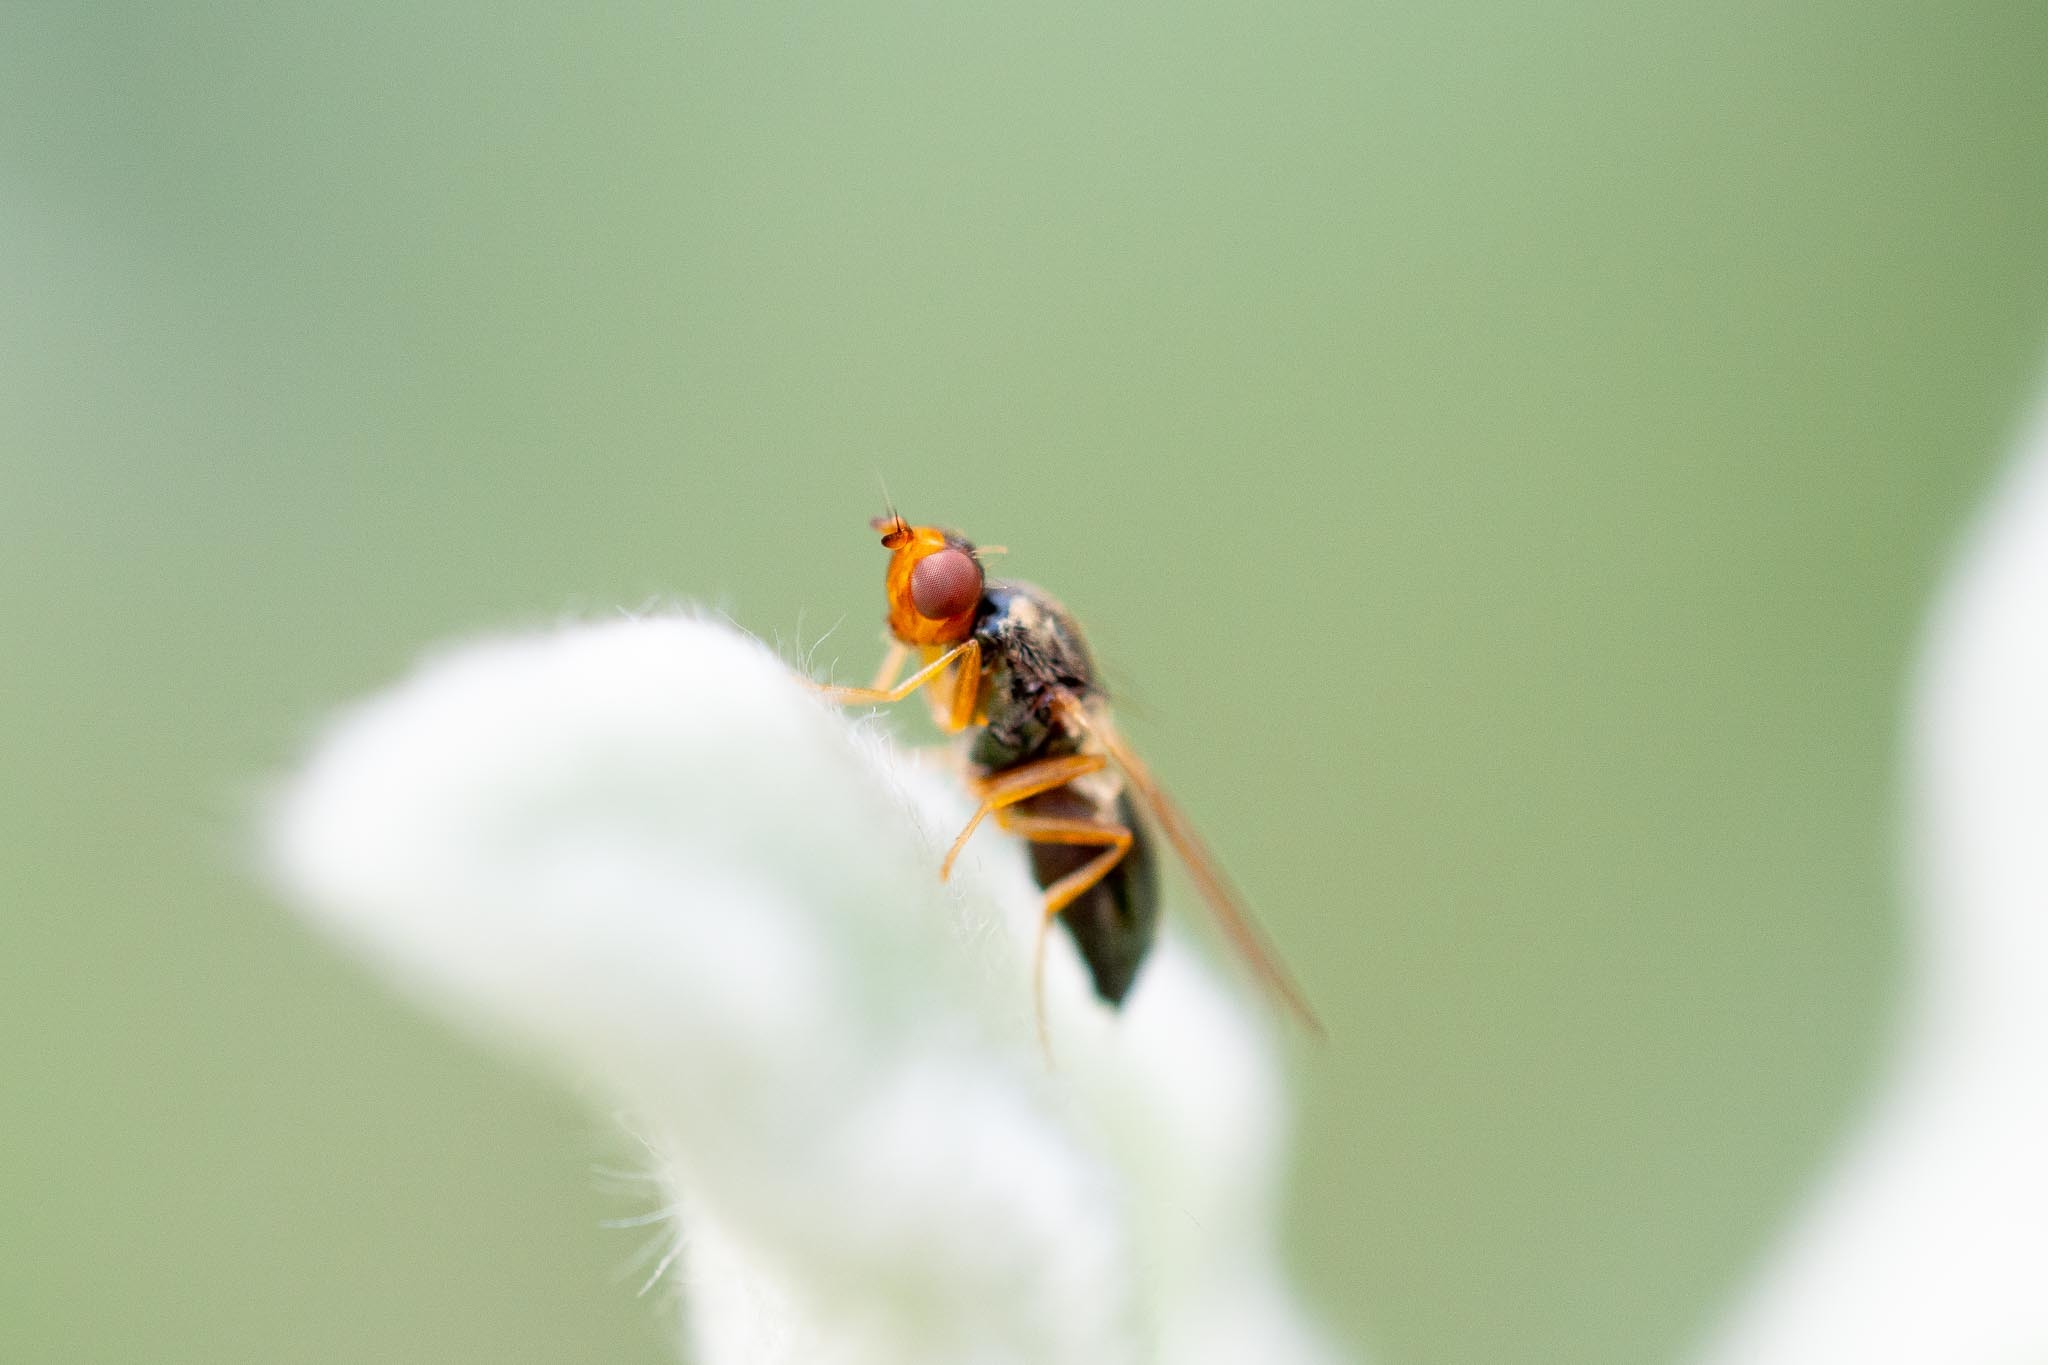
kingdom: Animalia
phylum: Arthropoda
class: Insecta
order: Diptera
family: Psilidae
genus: Chamaepsila
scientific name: Chamaepsila limbatella
